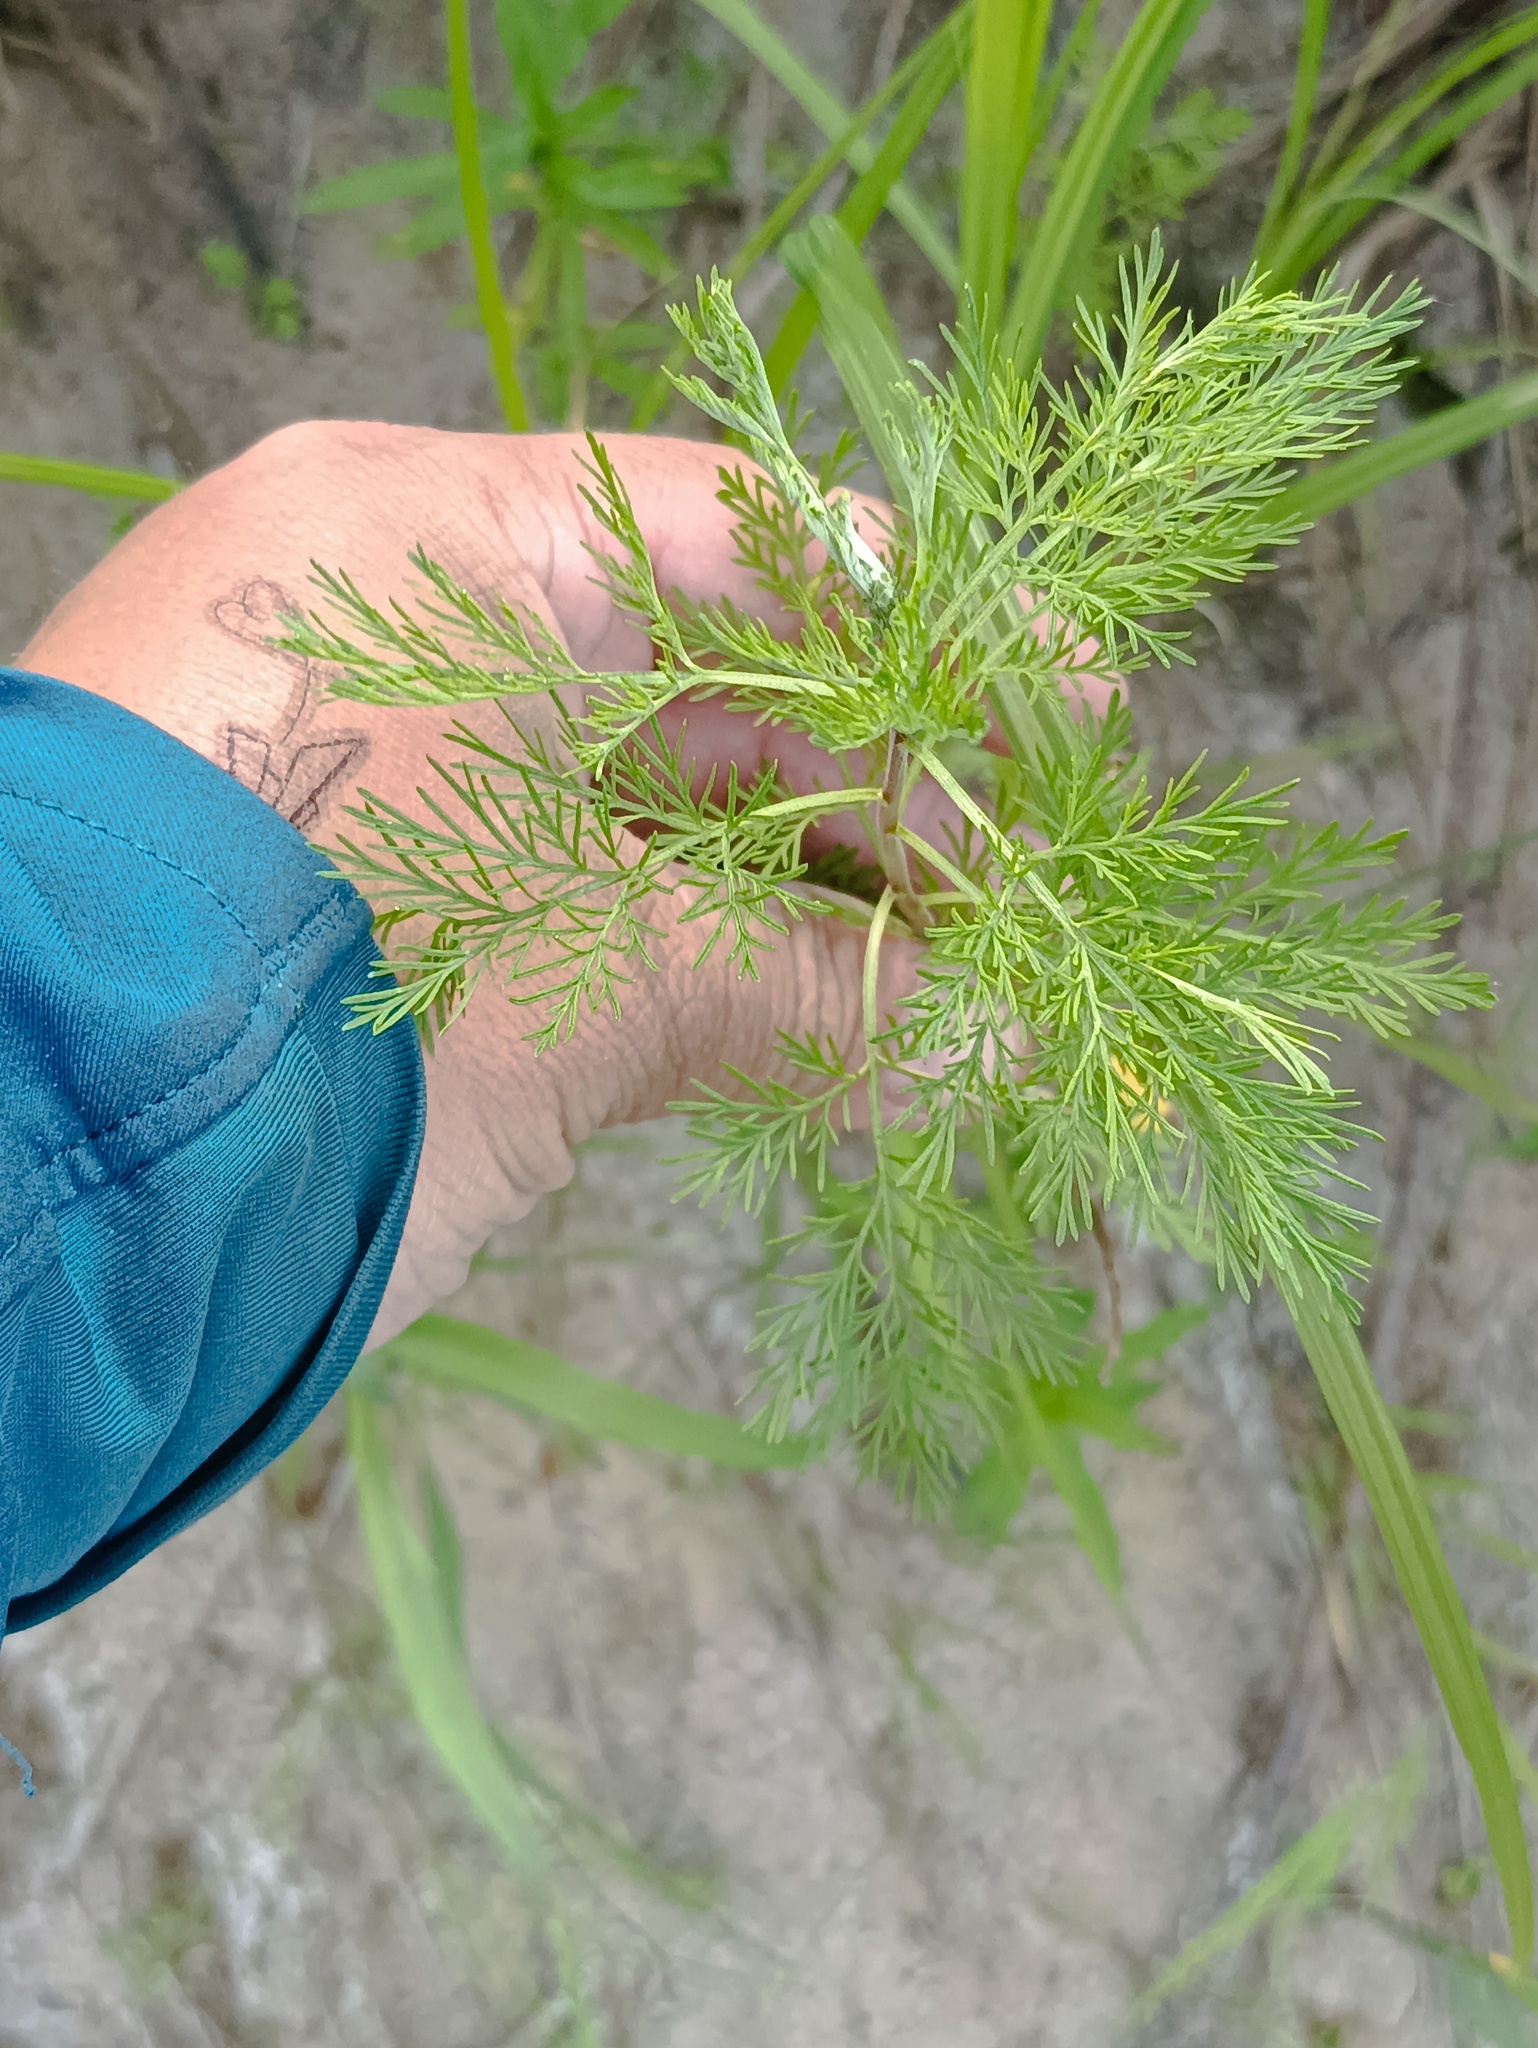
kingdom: Plantae
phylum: Tracheophyta
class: Magnoliopsida
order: Asterales
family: Asteraceae
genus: Artemisia
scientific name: Artemisia abrotanum
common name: Southernwood
